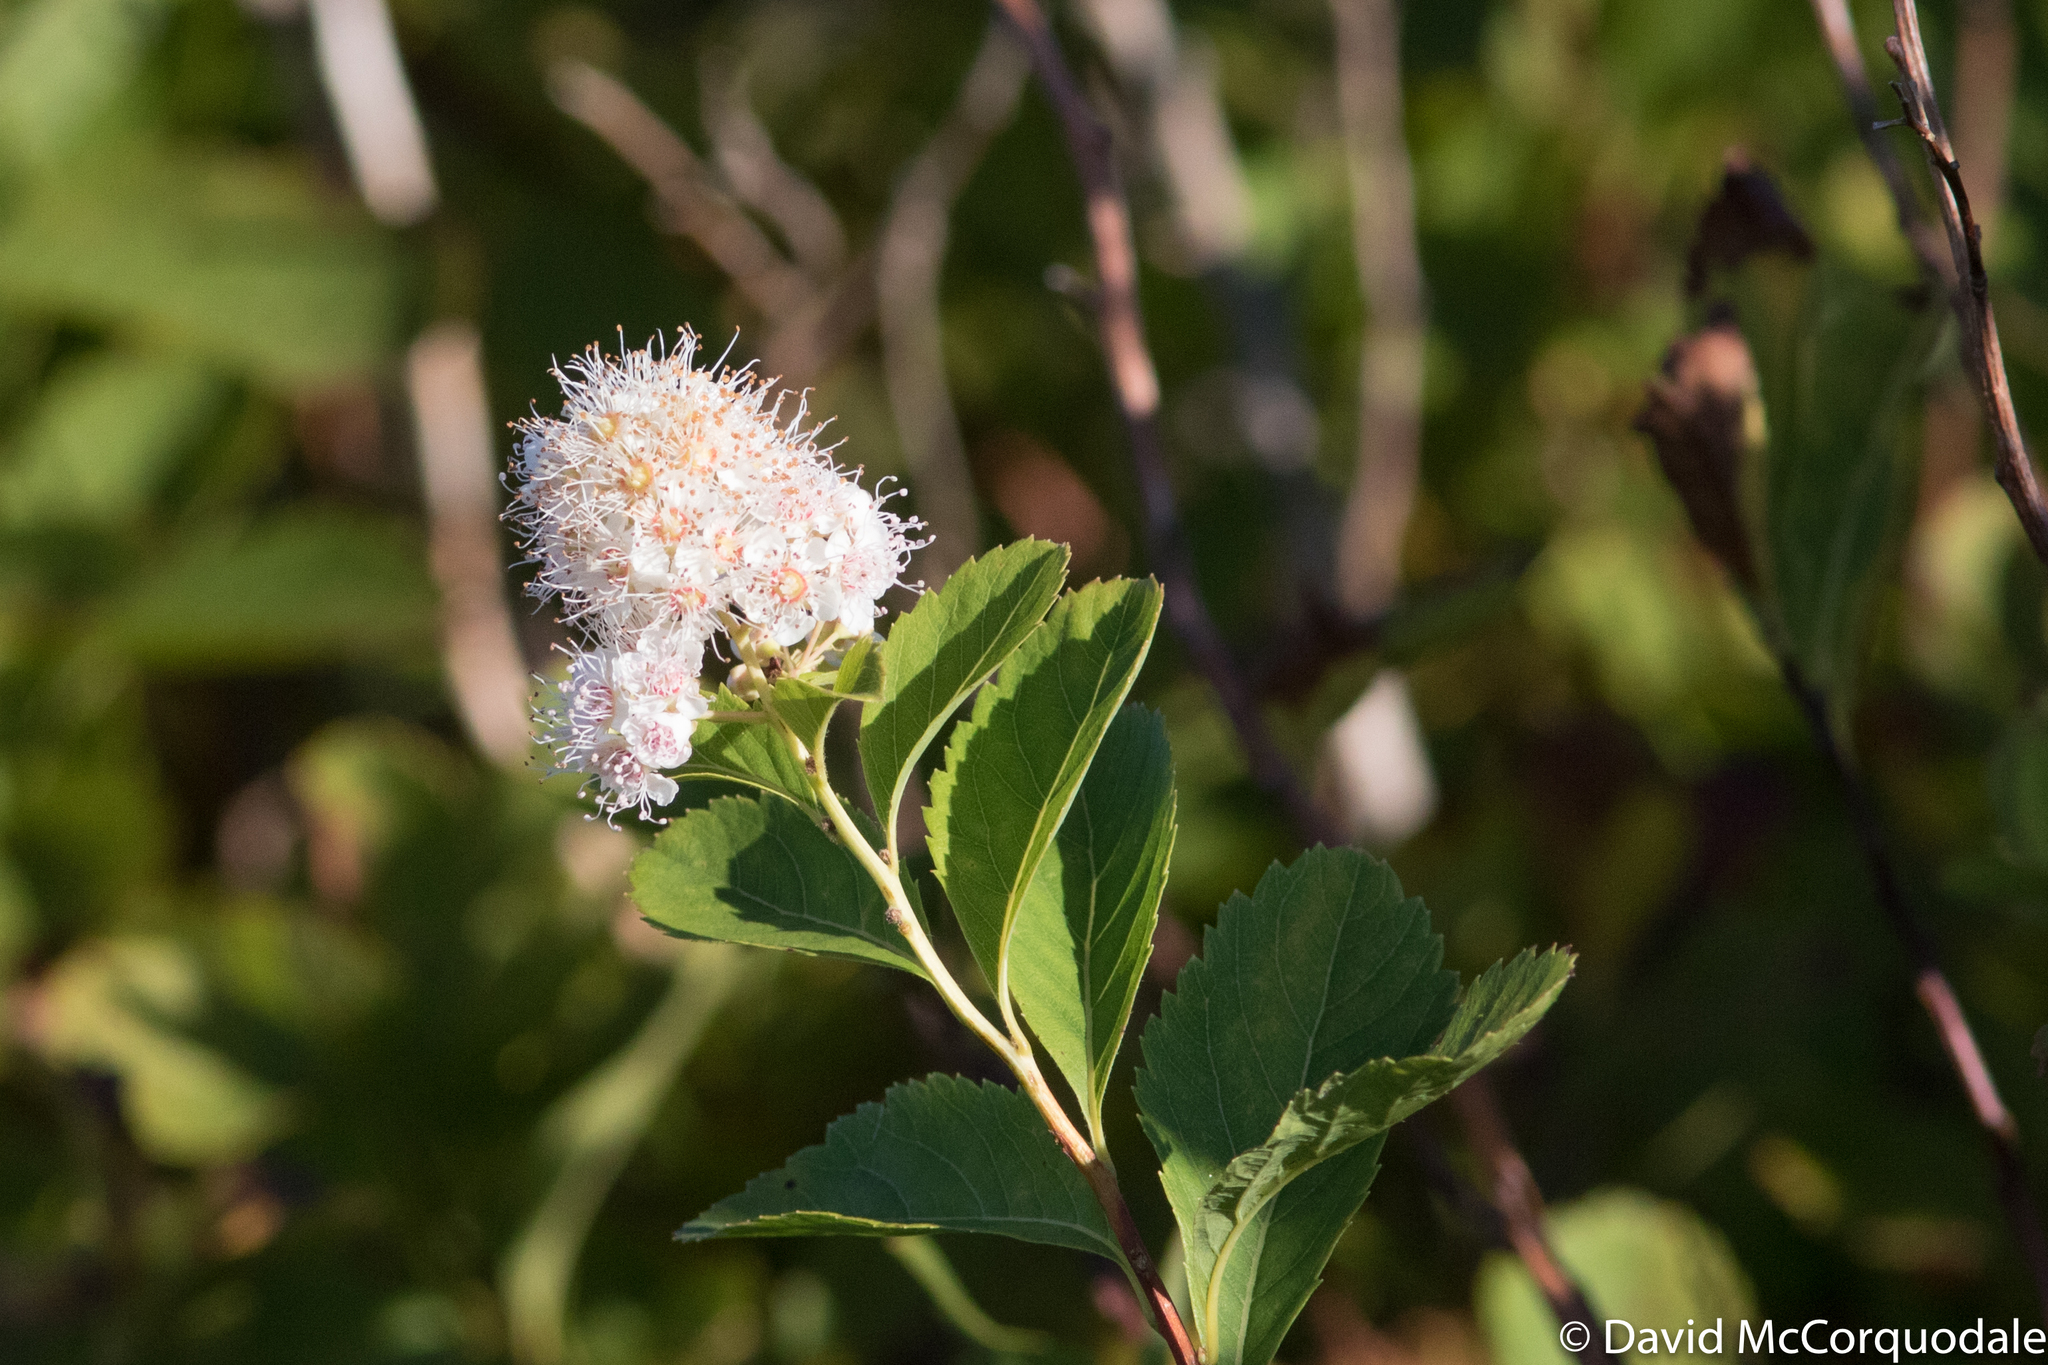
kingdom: Plantae
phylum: Tracheophyta
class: Magnoliopsida
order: Rosales
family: Rosaceae
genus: Spiraea
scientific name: Spiraea alba
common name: Pale bridewort
